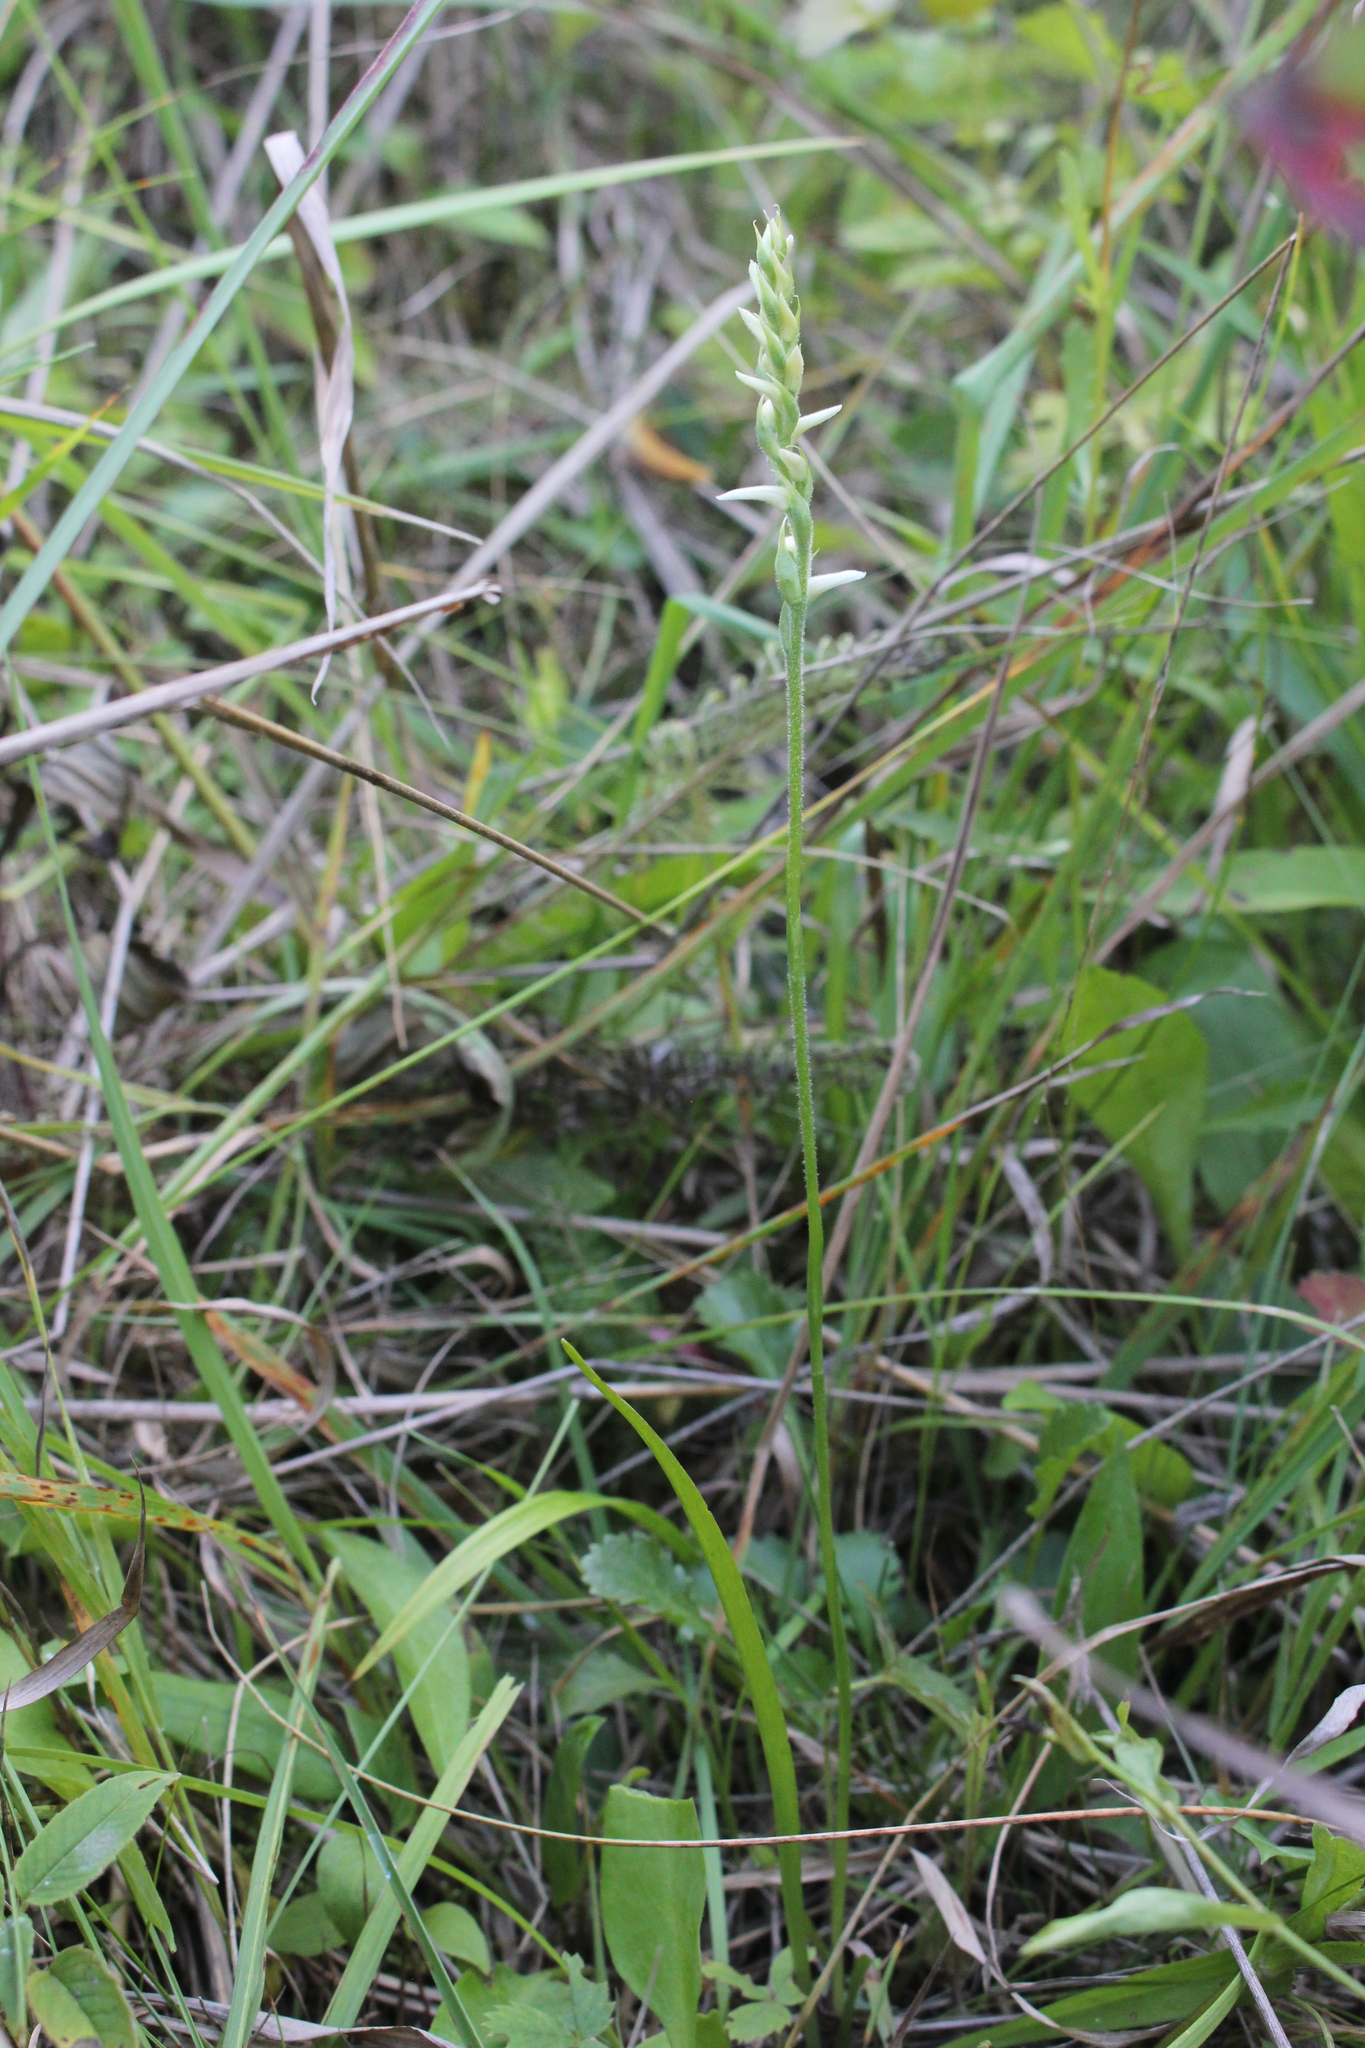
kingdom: Plantae
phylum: Tracheophyta
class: Liliopsida
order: Asparagales
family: Orchidaceae
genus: Spiranthes
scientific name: Spiranthes incurva
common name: Sphinx ladies'-tresses
